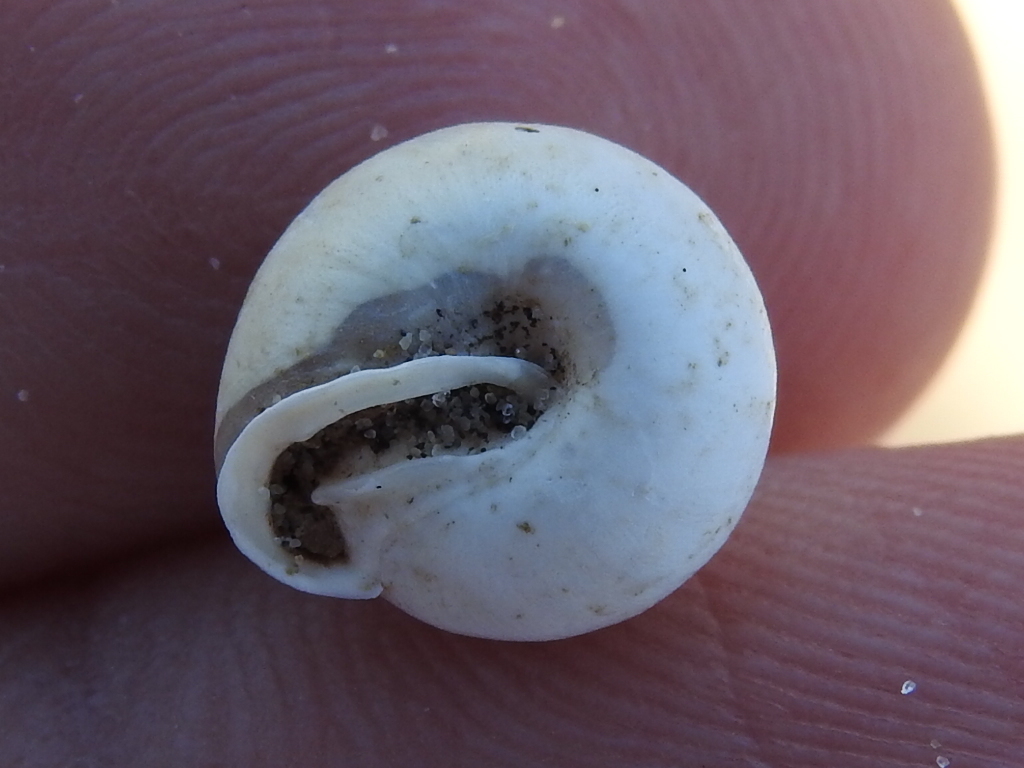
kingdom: Animalia
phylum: Mollusca
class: Gastropoda
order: Stylommatophora
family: Polygyridae
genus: Euchemotrema
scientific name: Euchemotrema leaii
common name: Lowland pillsnail
